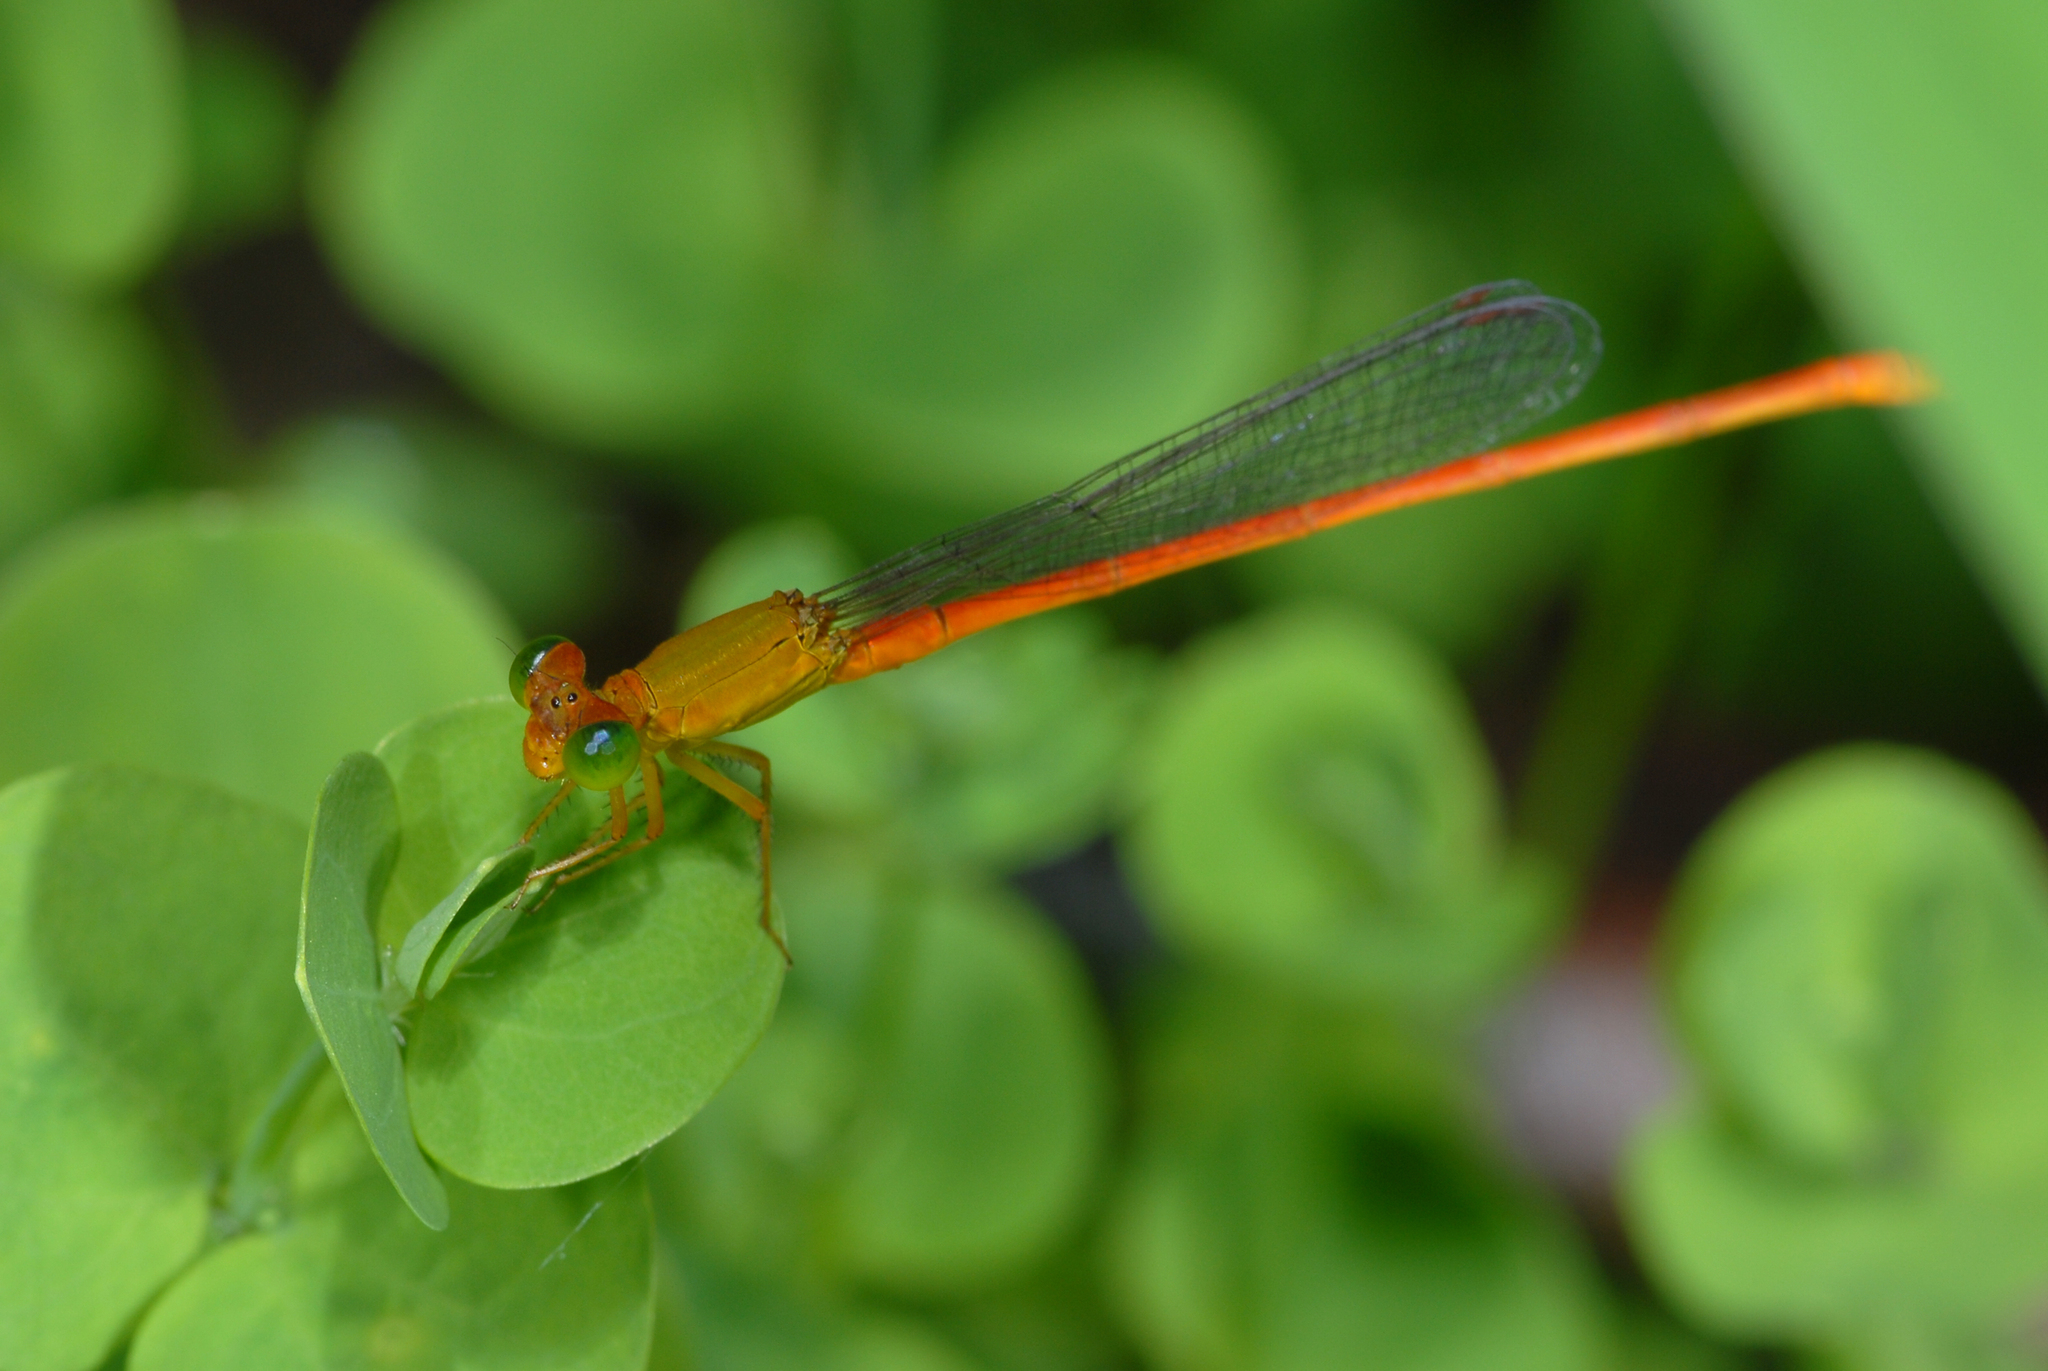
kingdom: Animalia
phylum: Arthropoda
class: Insecta
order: Odonata
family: Coenagrionidae
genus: Ceriagrion
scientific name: Ceriagrion auranticum
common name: Orange-tailed sprite
